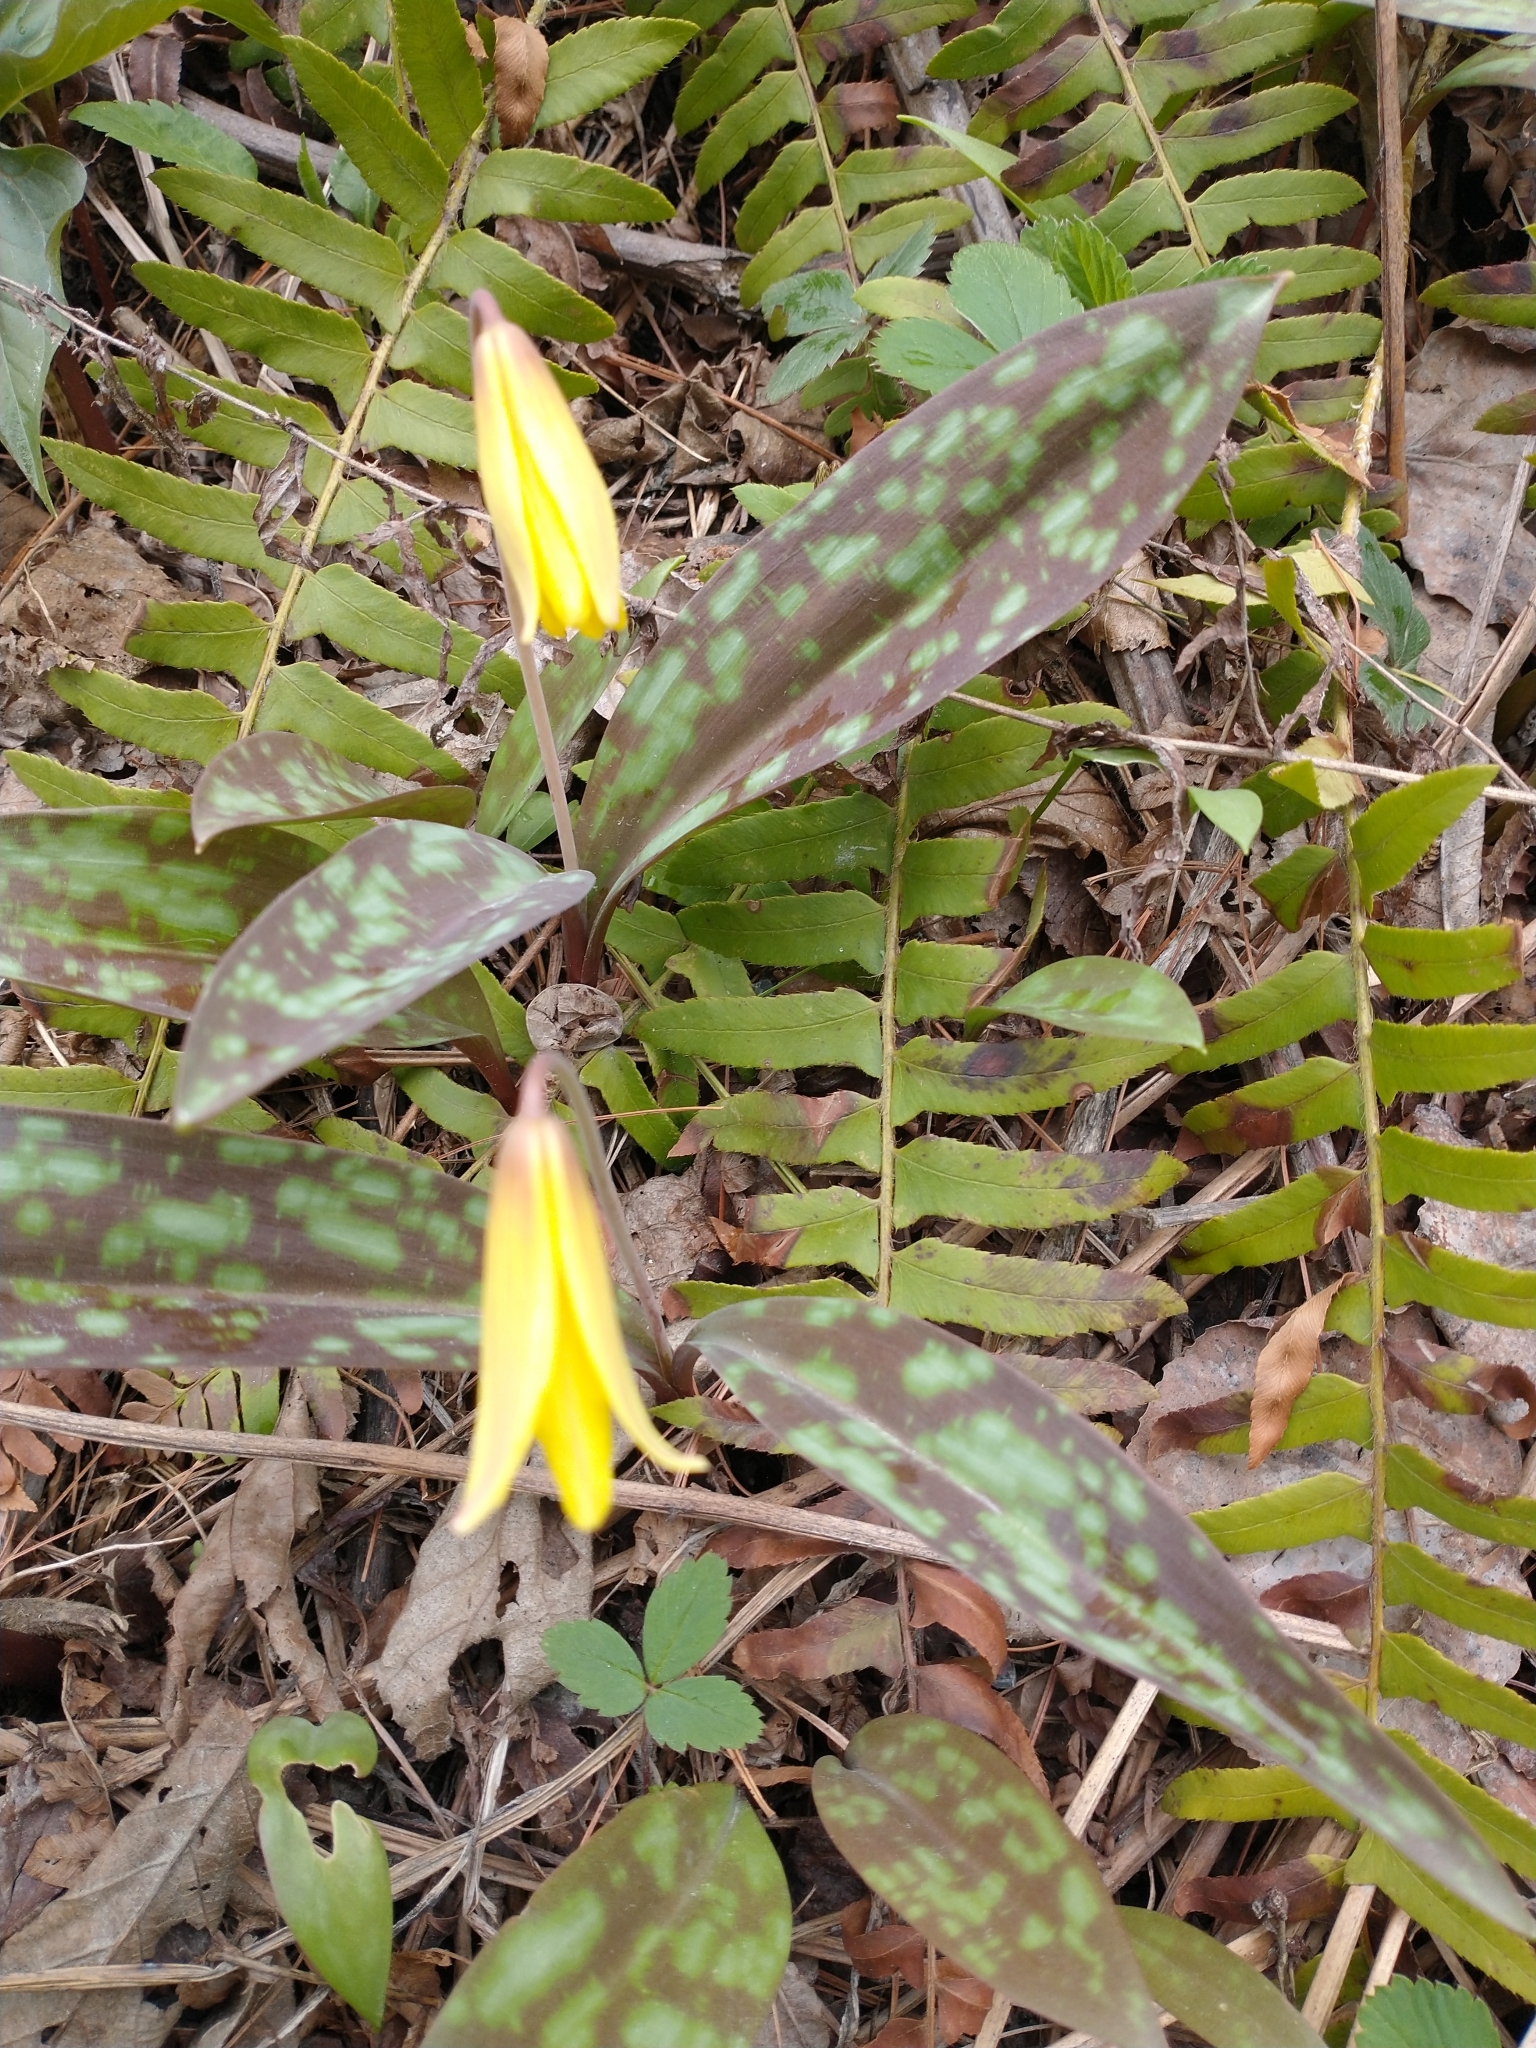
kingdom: Plantae
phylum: Tracheophyta
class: Liliopsida
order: Liliales
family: Liliaceae
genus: Erythronium
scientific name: Erythronium americanum
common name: Yellow adder's-tongue
